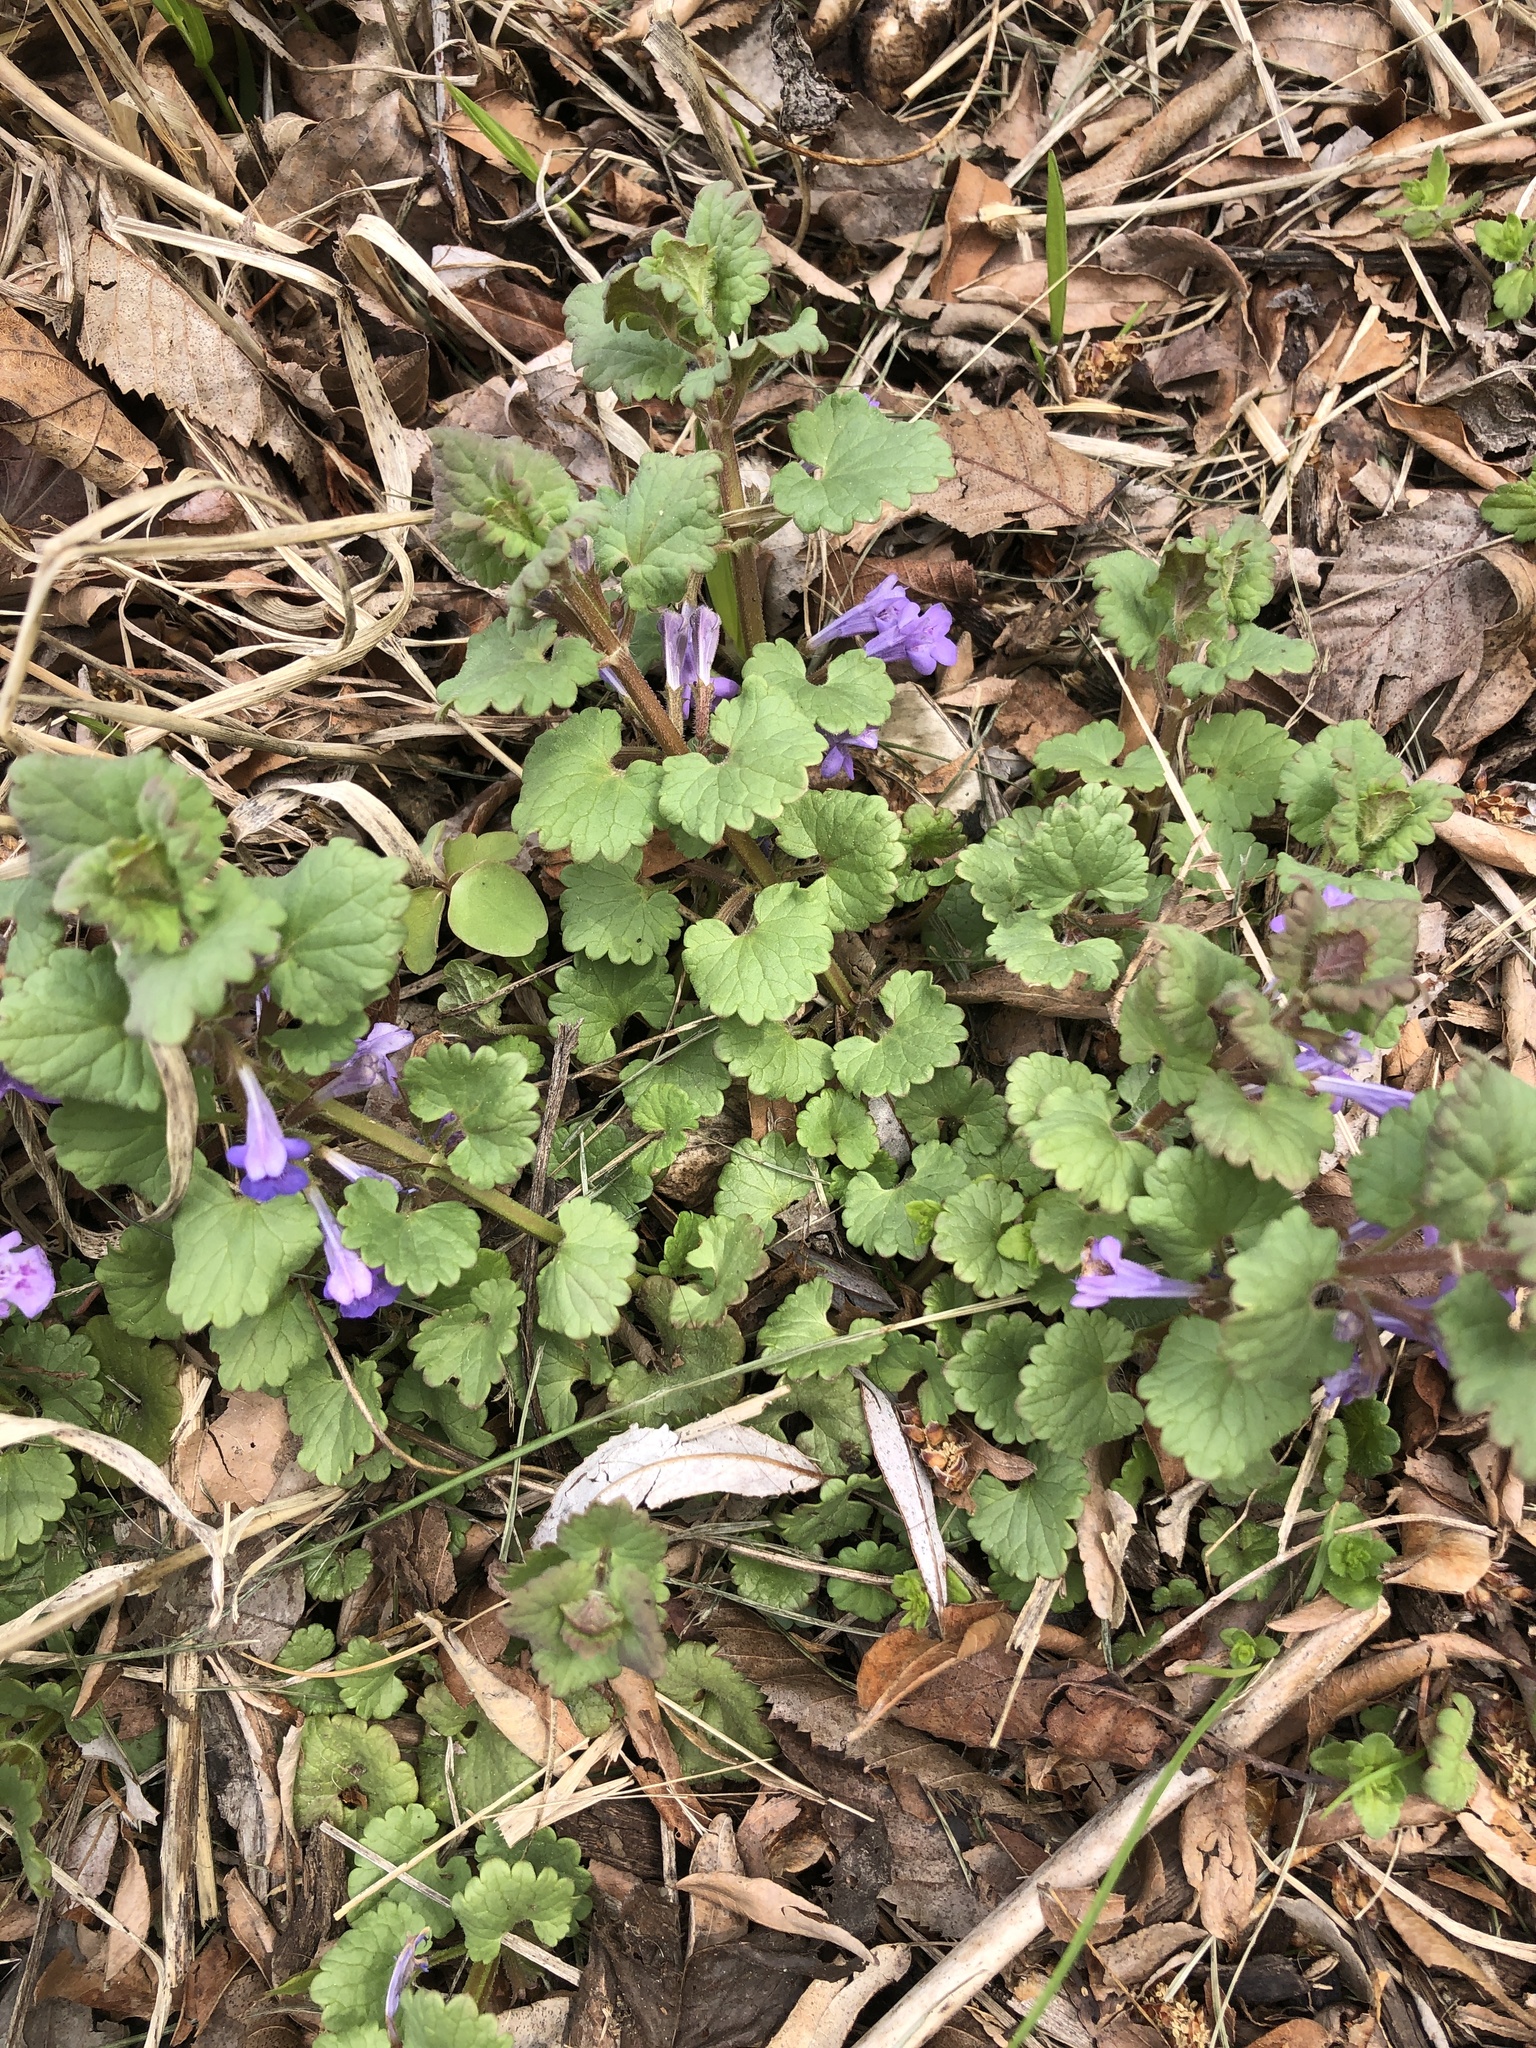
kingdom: Plantae
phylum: Tracheophyta
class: Magnoliopsida
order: Lamiales
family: Lamiaceae
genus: Glechoma
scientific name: Glechoma hederacea
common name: Ground ivy
